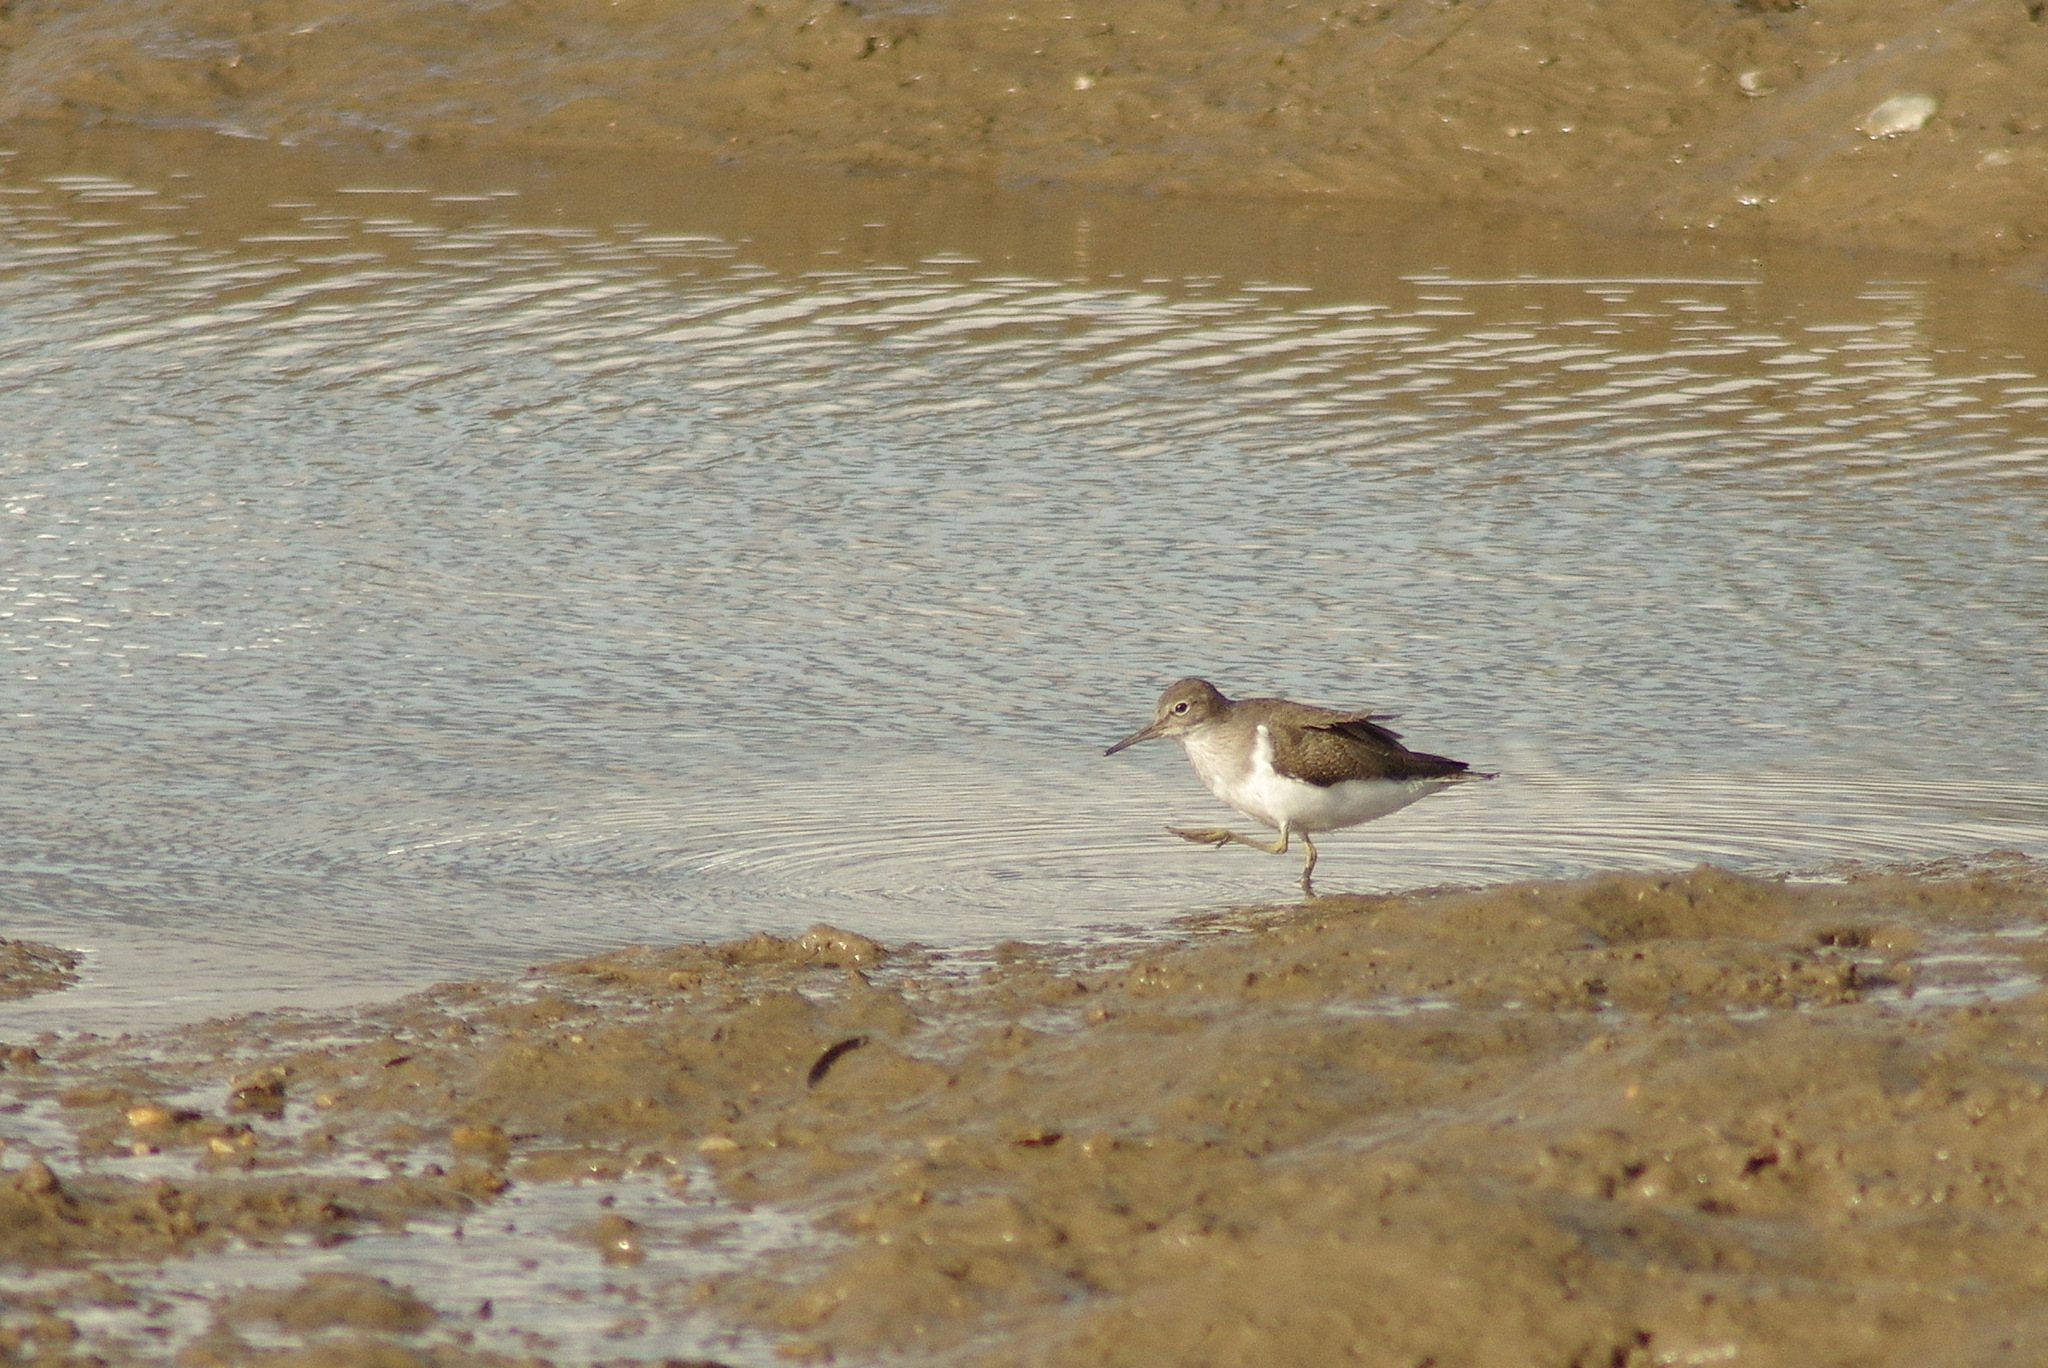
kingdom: Animalia
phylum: Chordata
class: Aves
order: Charadriiformes
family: Scolopacidae
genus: Actitis
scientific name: Actitis hypoleucos
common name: Common sandpiper
